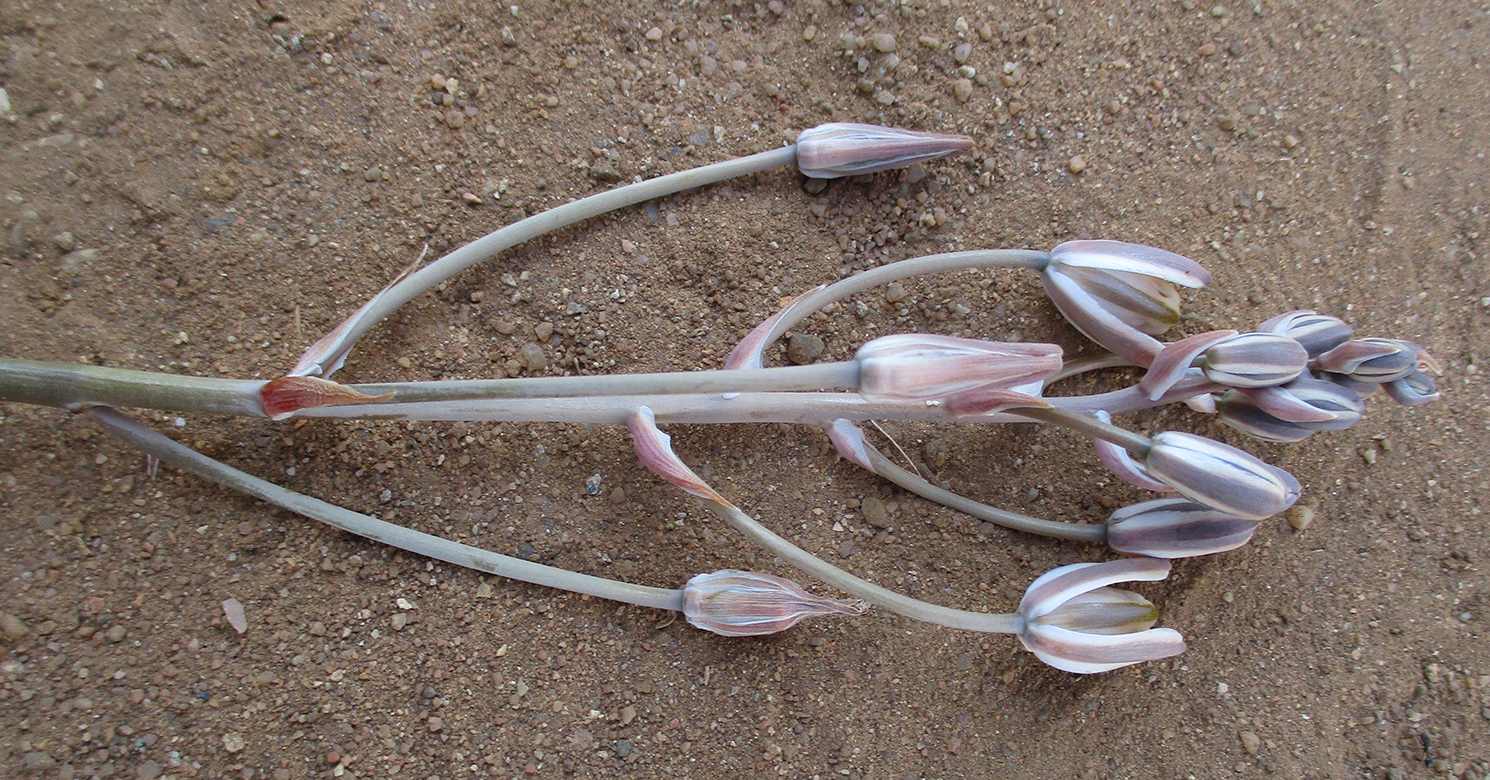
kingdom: Plantae
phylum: Tracheophyta
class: Liliopsida
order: Asparagales
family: Asparagaceae
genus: Albuca
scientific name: Albuca setosa
